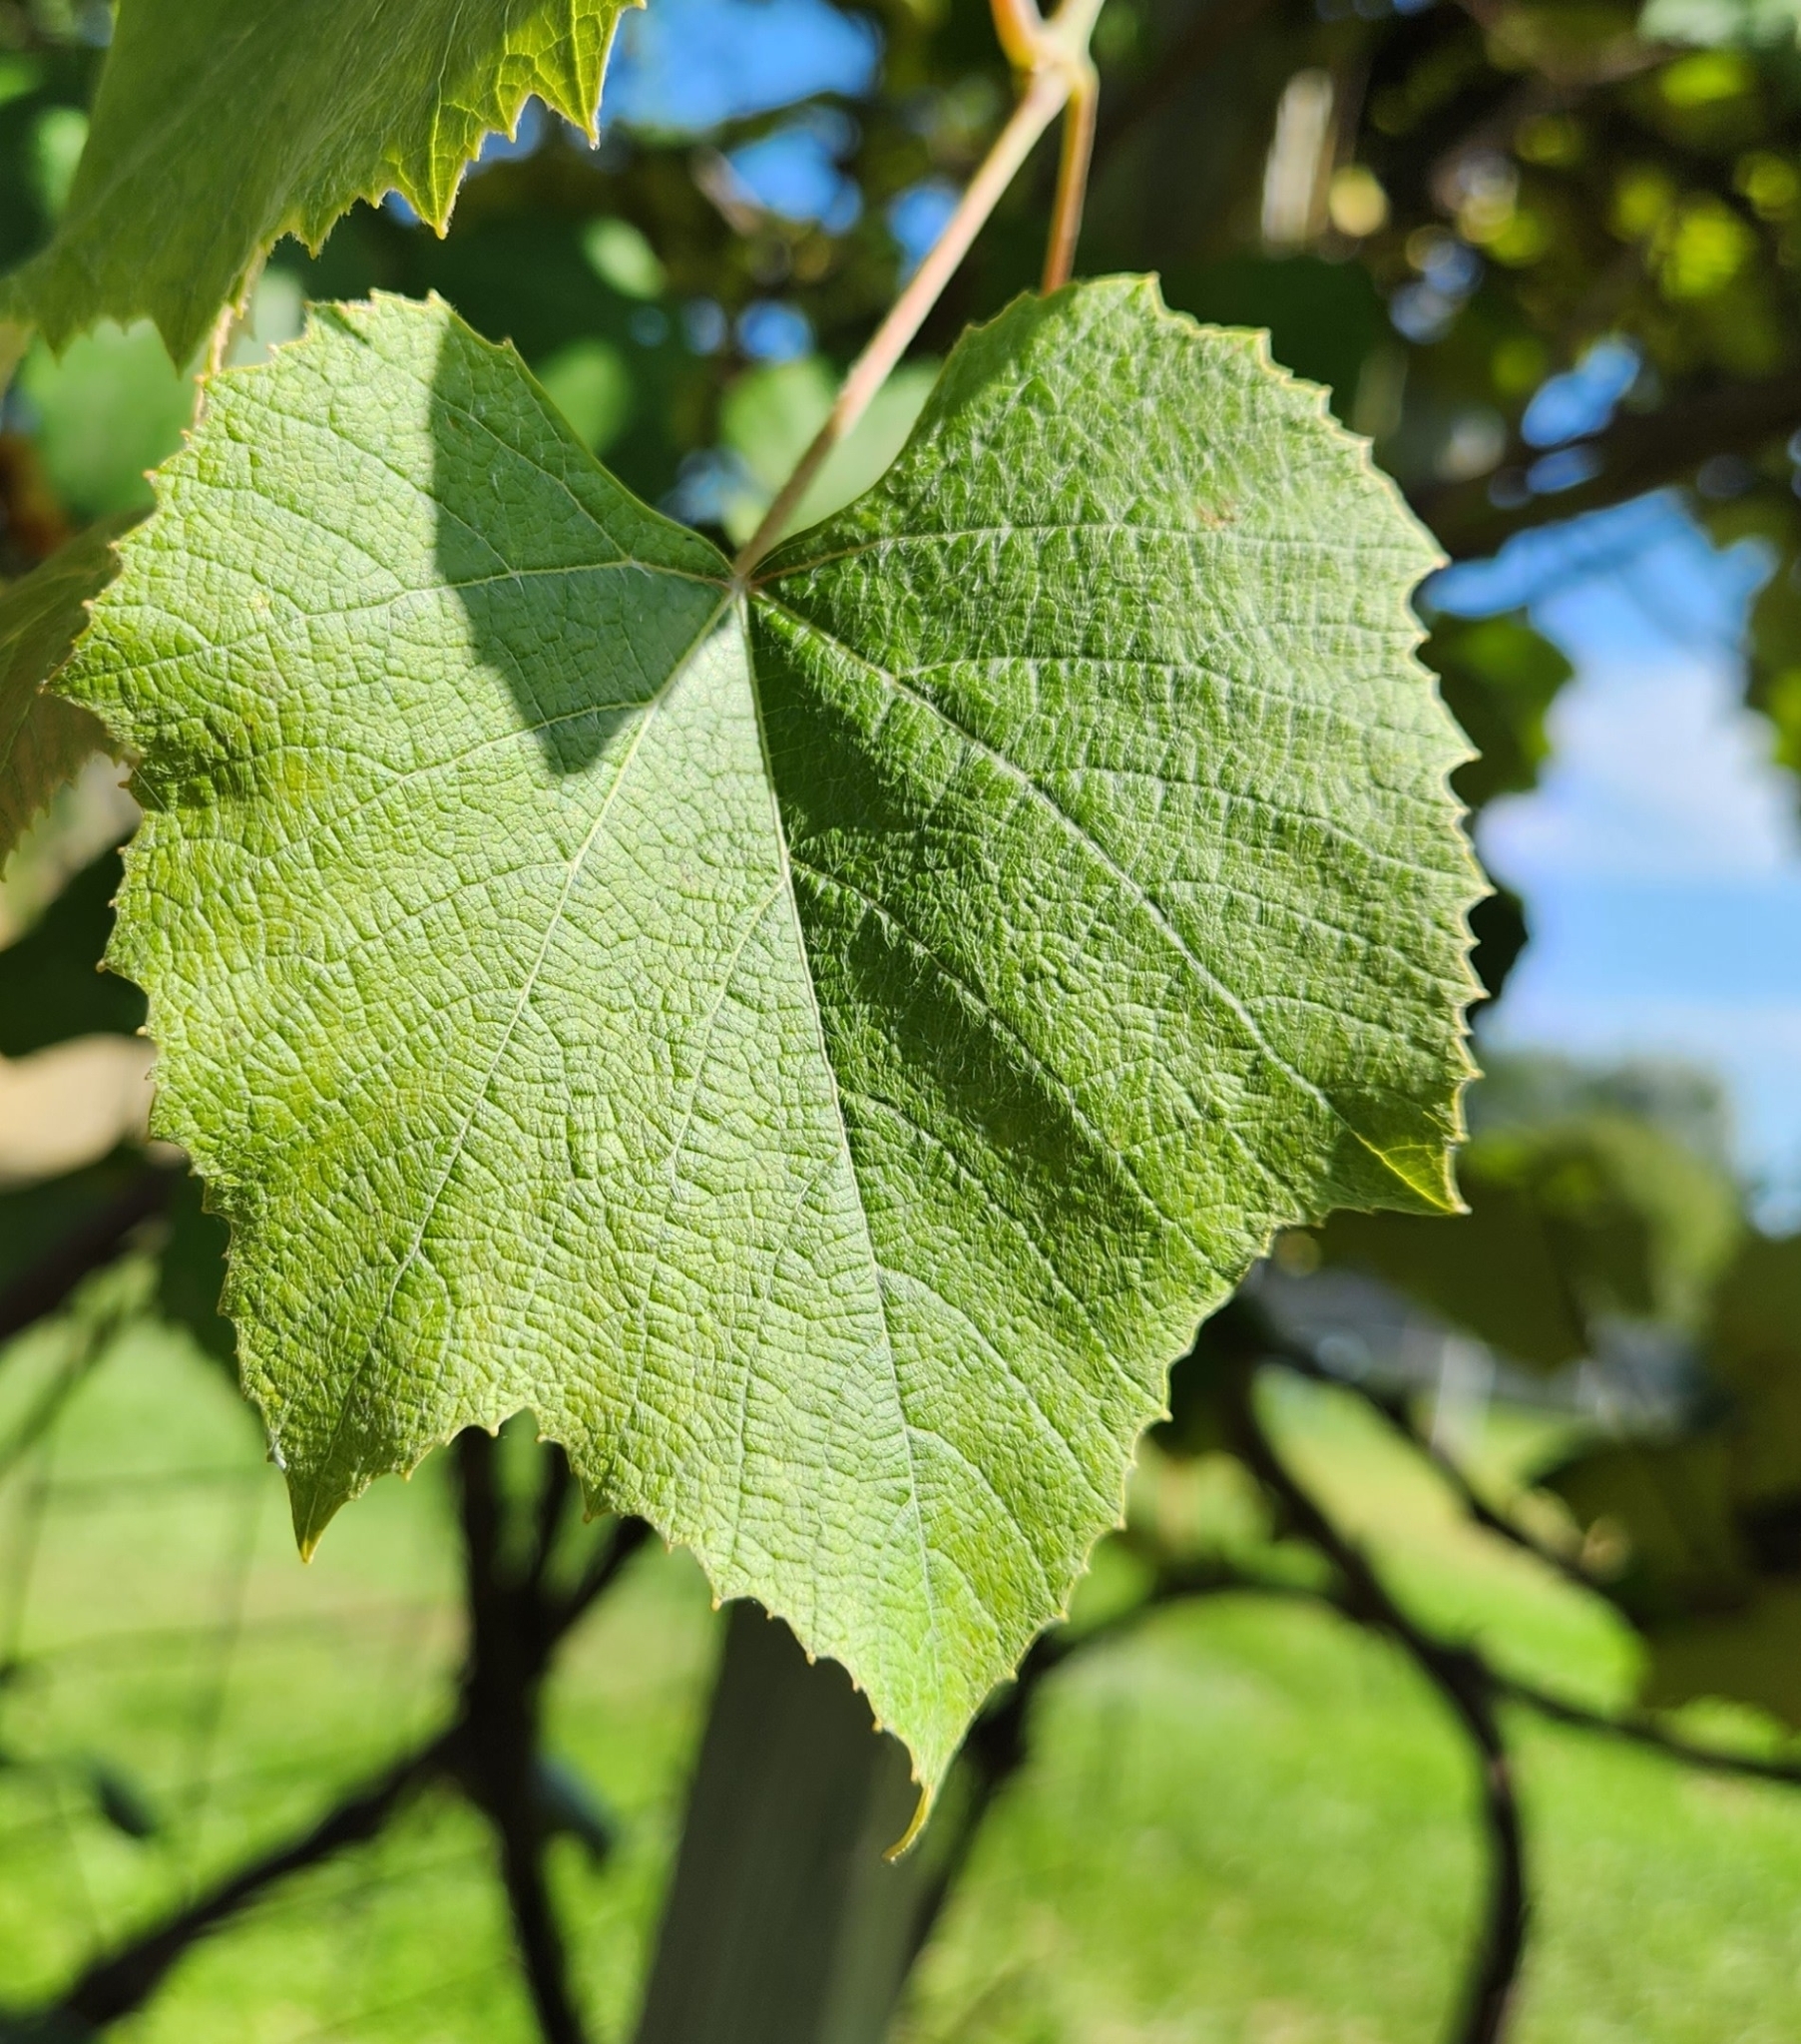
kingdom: Plantae
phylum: Tracheophyta
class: Magnoliopsida
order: Vitales
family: Vitaceae
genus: Vitis
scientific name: Vitis labrusca
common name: Concord grape
